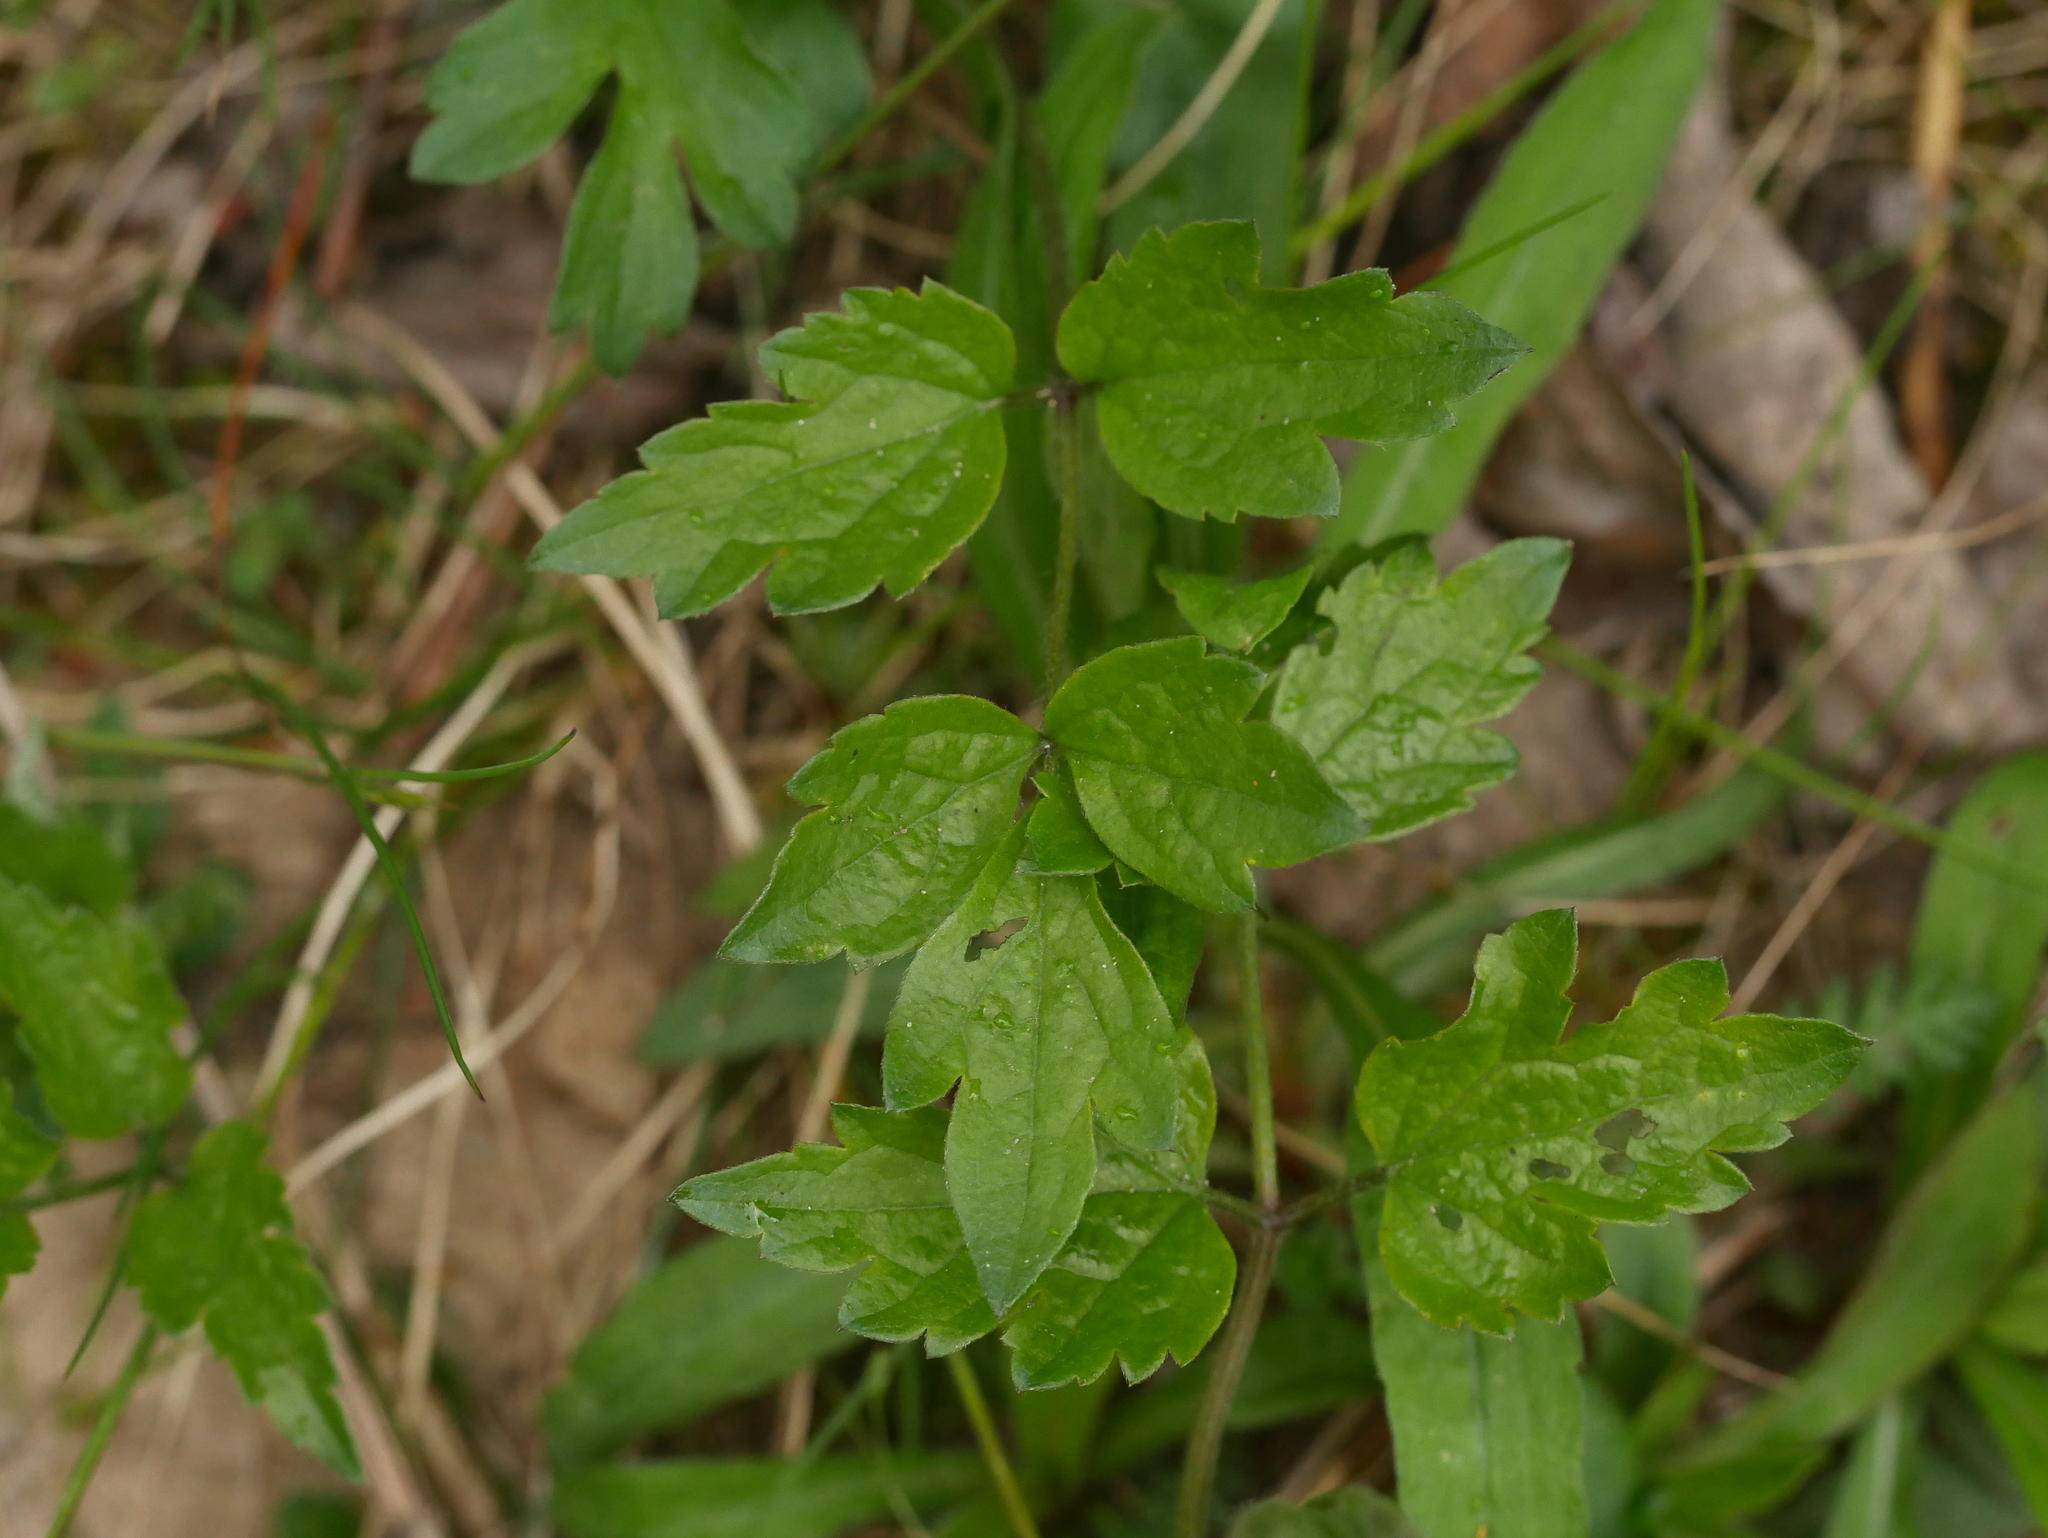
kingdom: Plantae
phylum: Tracheophyta
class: Magnoliopsida
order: Ranunculales
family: Ranunculaceae
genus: Clematis
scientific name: Clematis vitalba
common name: Evergreen clematis
